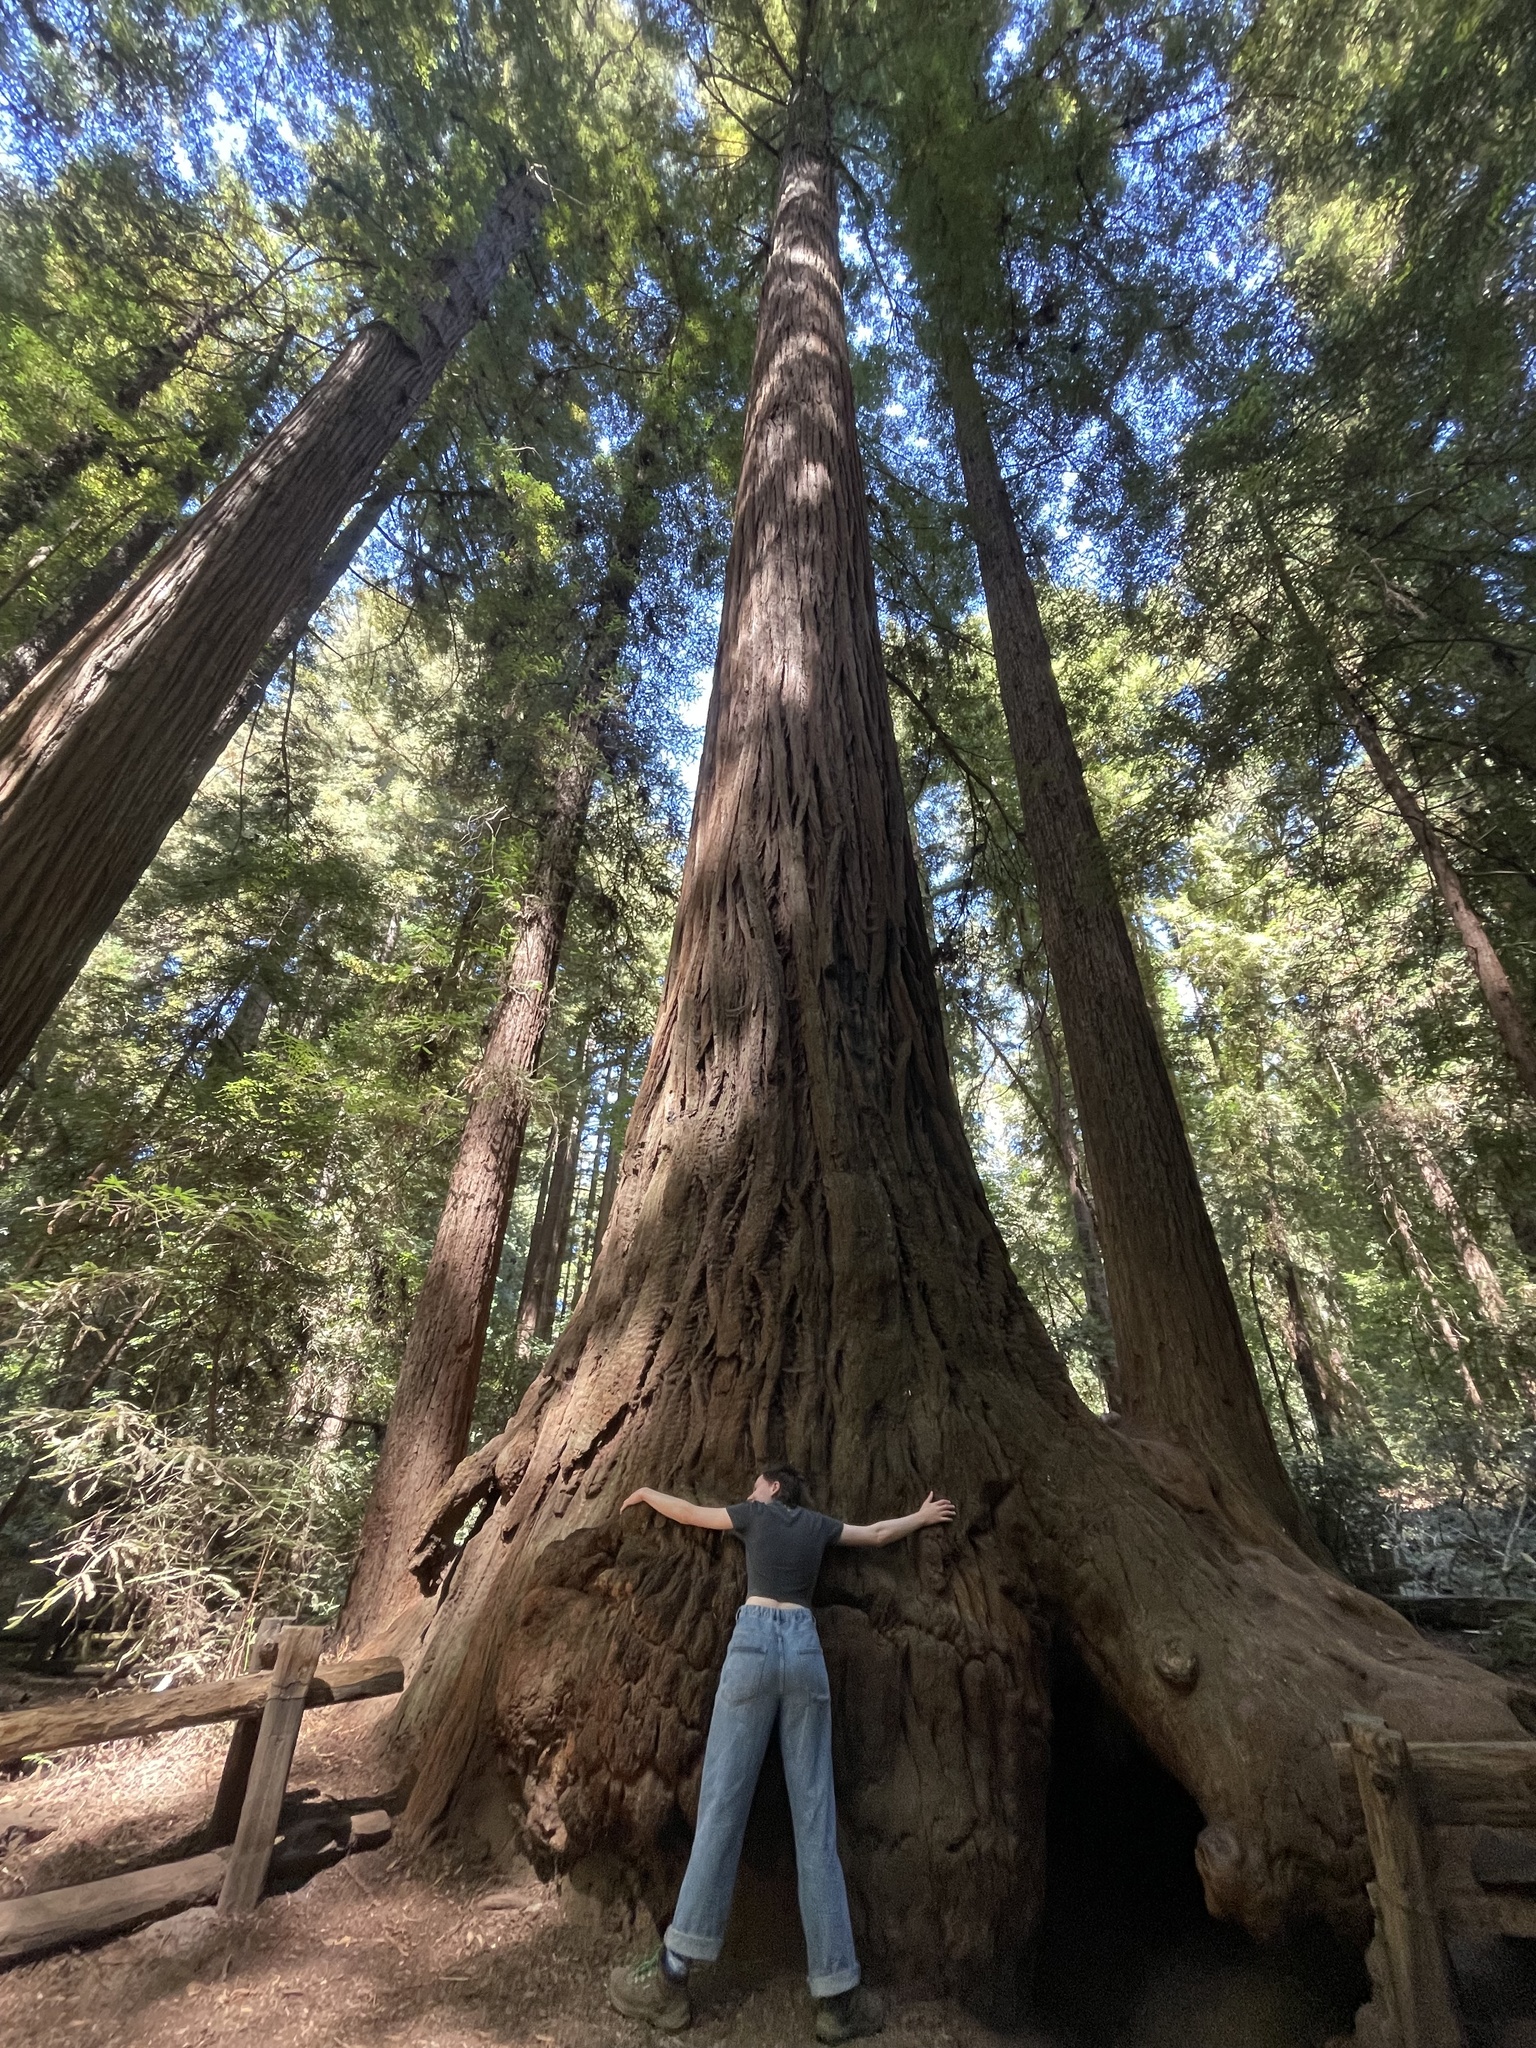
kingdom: Plantae
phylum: Tracheophyta
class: Pinopsida
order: Pinales
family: Cupressaceae
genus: Sequoia
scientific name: Sequoia sempervirens
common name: Coast redwood
